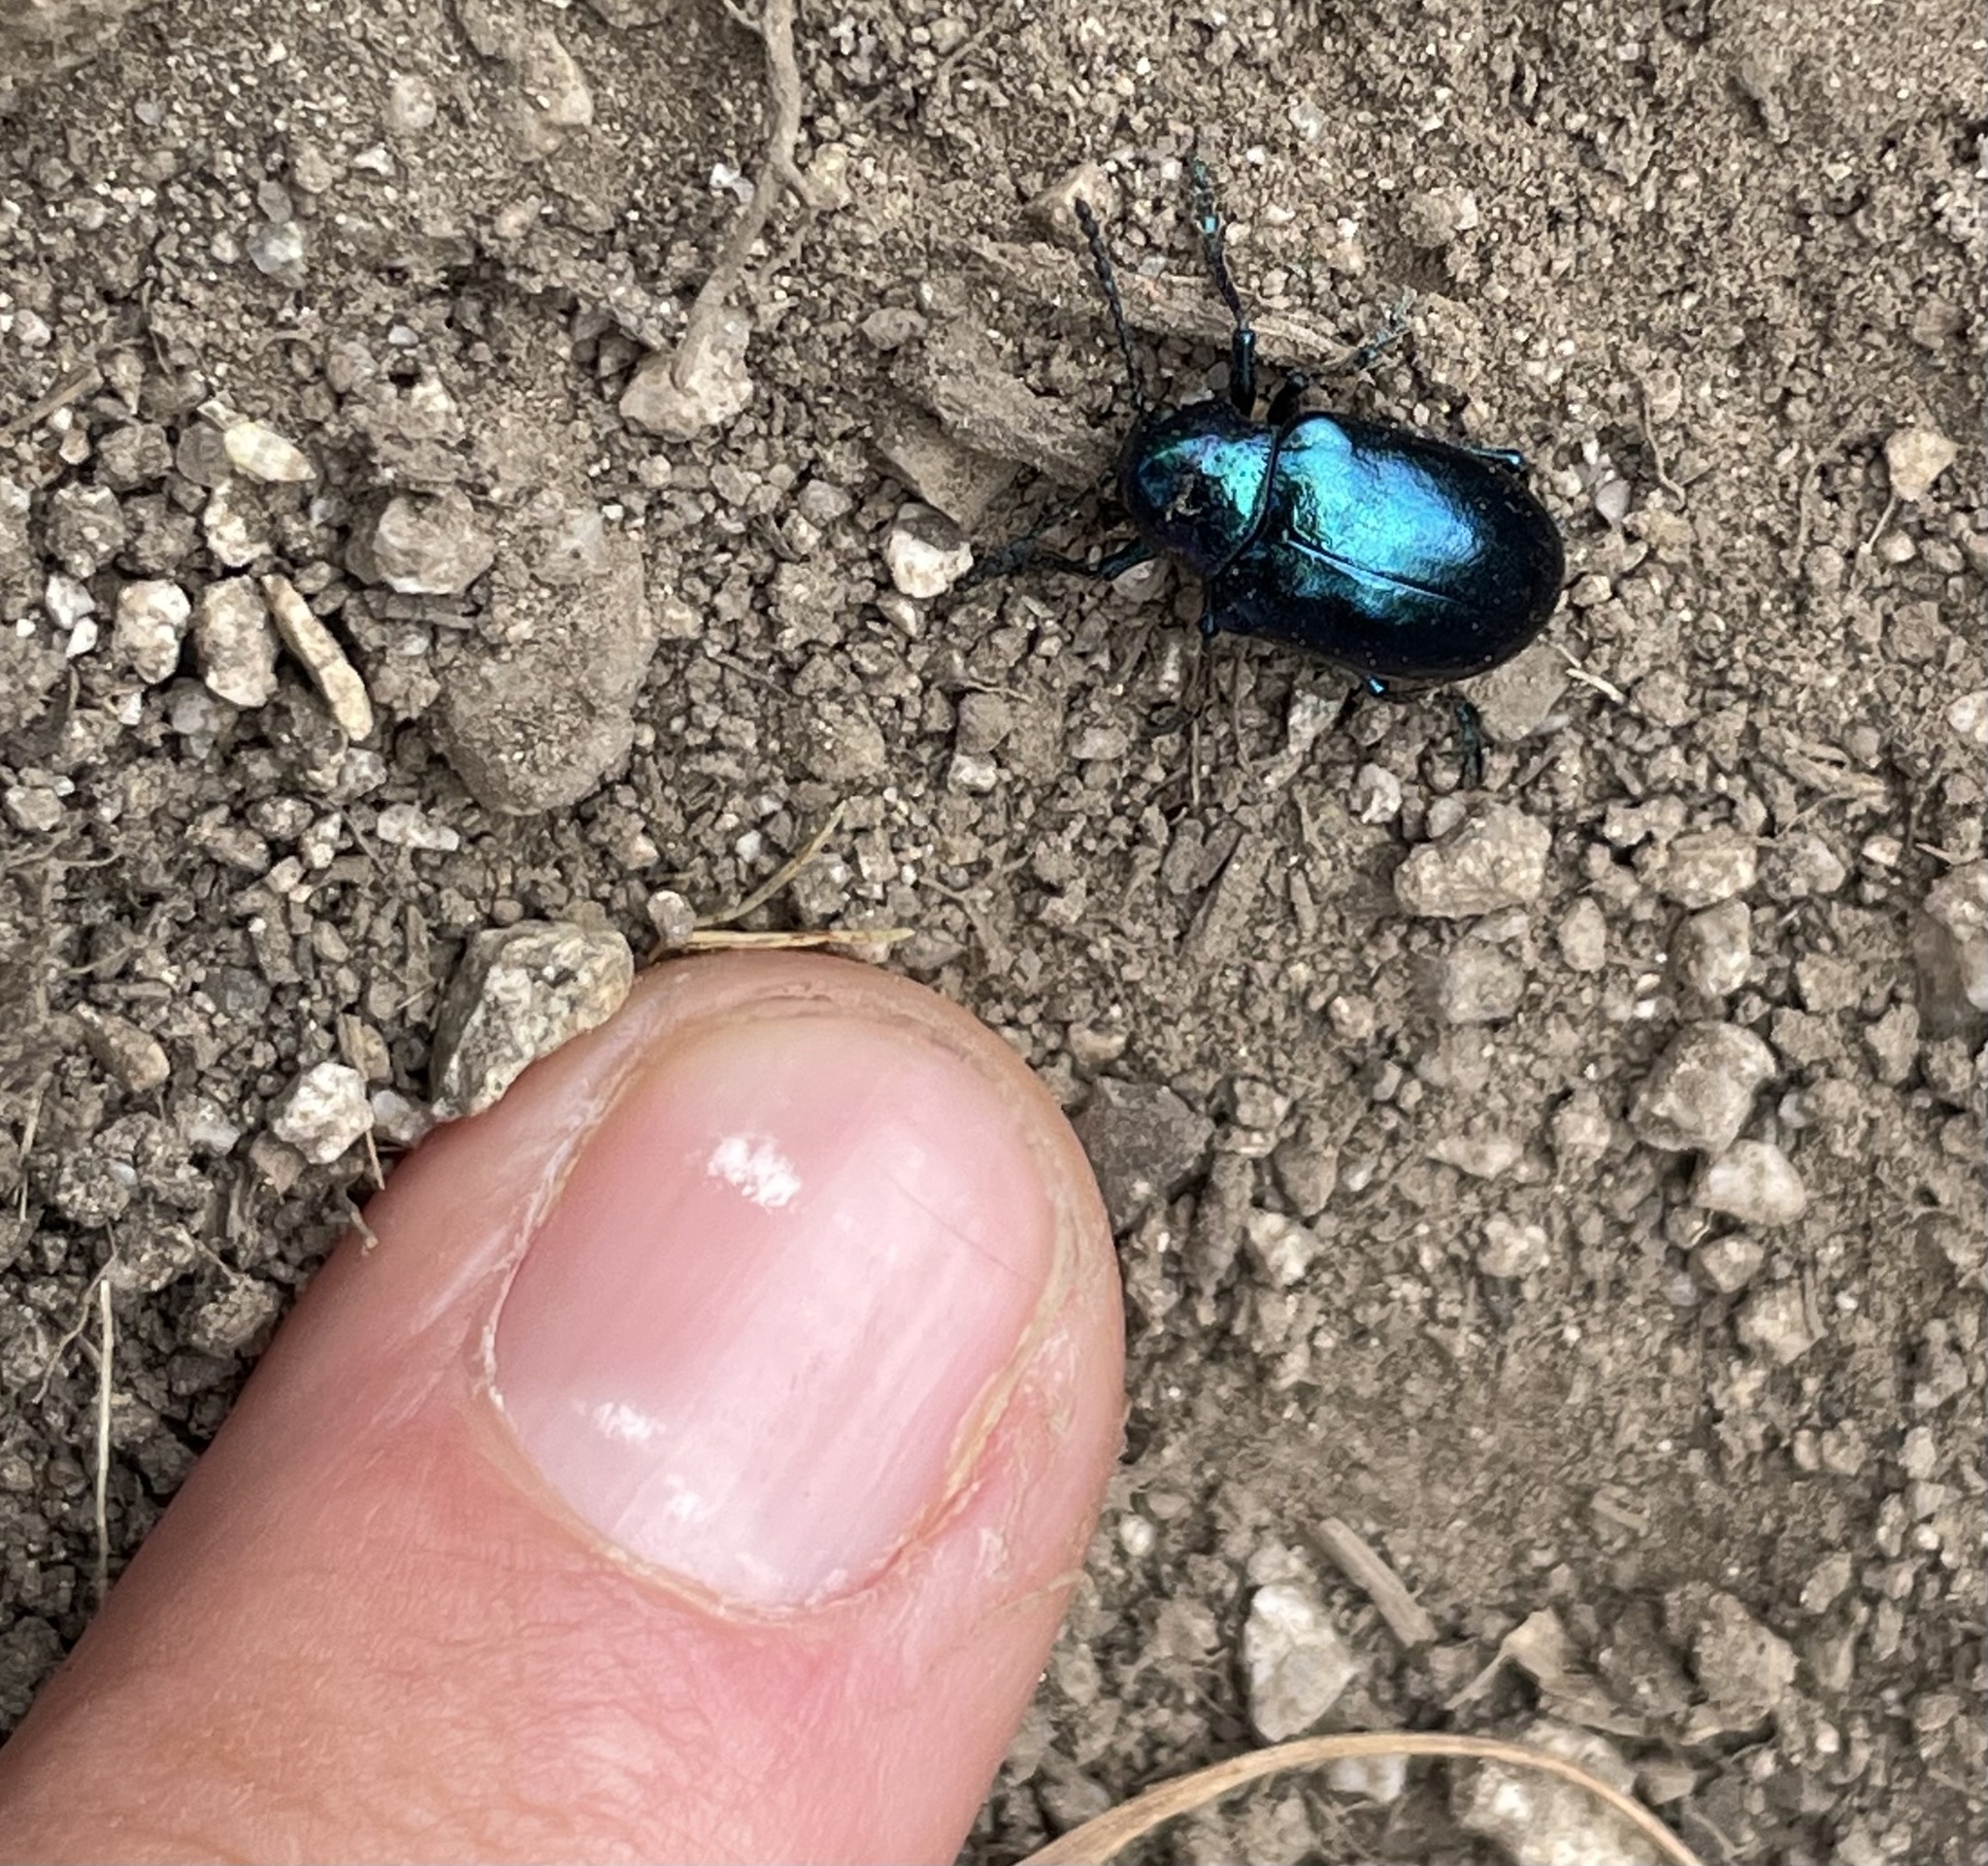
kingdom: Animalia
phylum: Arthropoda
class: Insecta
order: Coleoptera
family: Chrysomelidae
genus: Chrysochus
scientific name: Chrysochus cobaltinus
